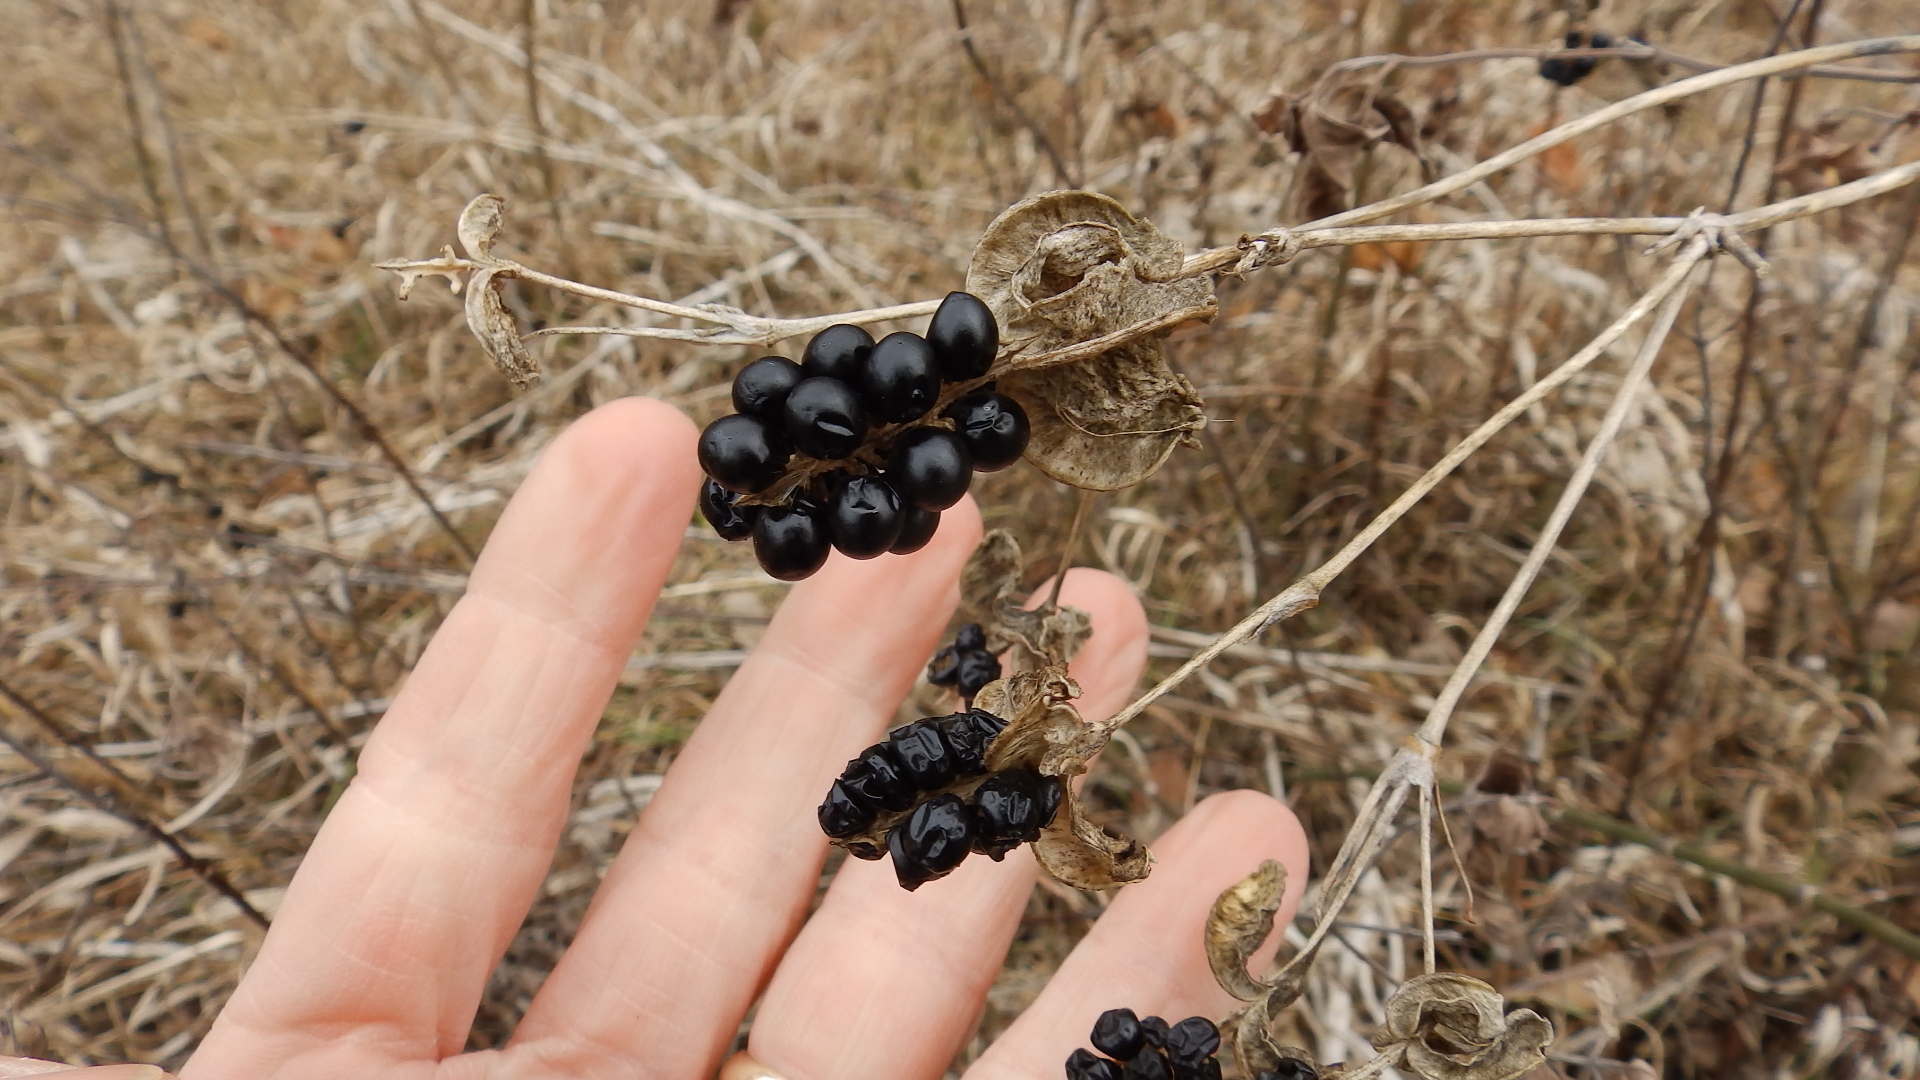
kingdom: Plantae
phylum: Tracheophyta
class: Liliopsida
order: Asparagales
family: Iridaceae
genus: Iris
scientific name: Iris domestica
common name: Belamcanda
